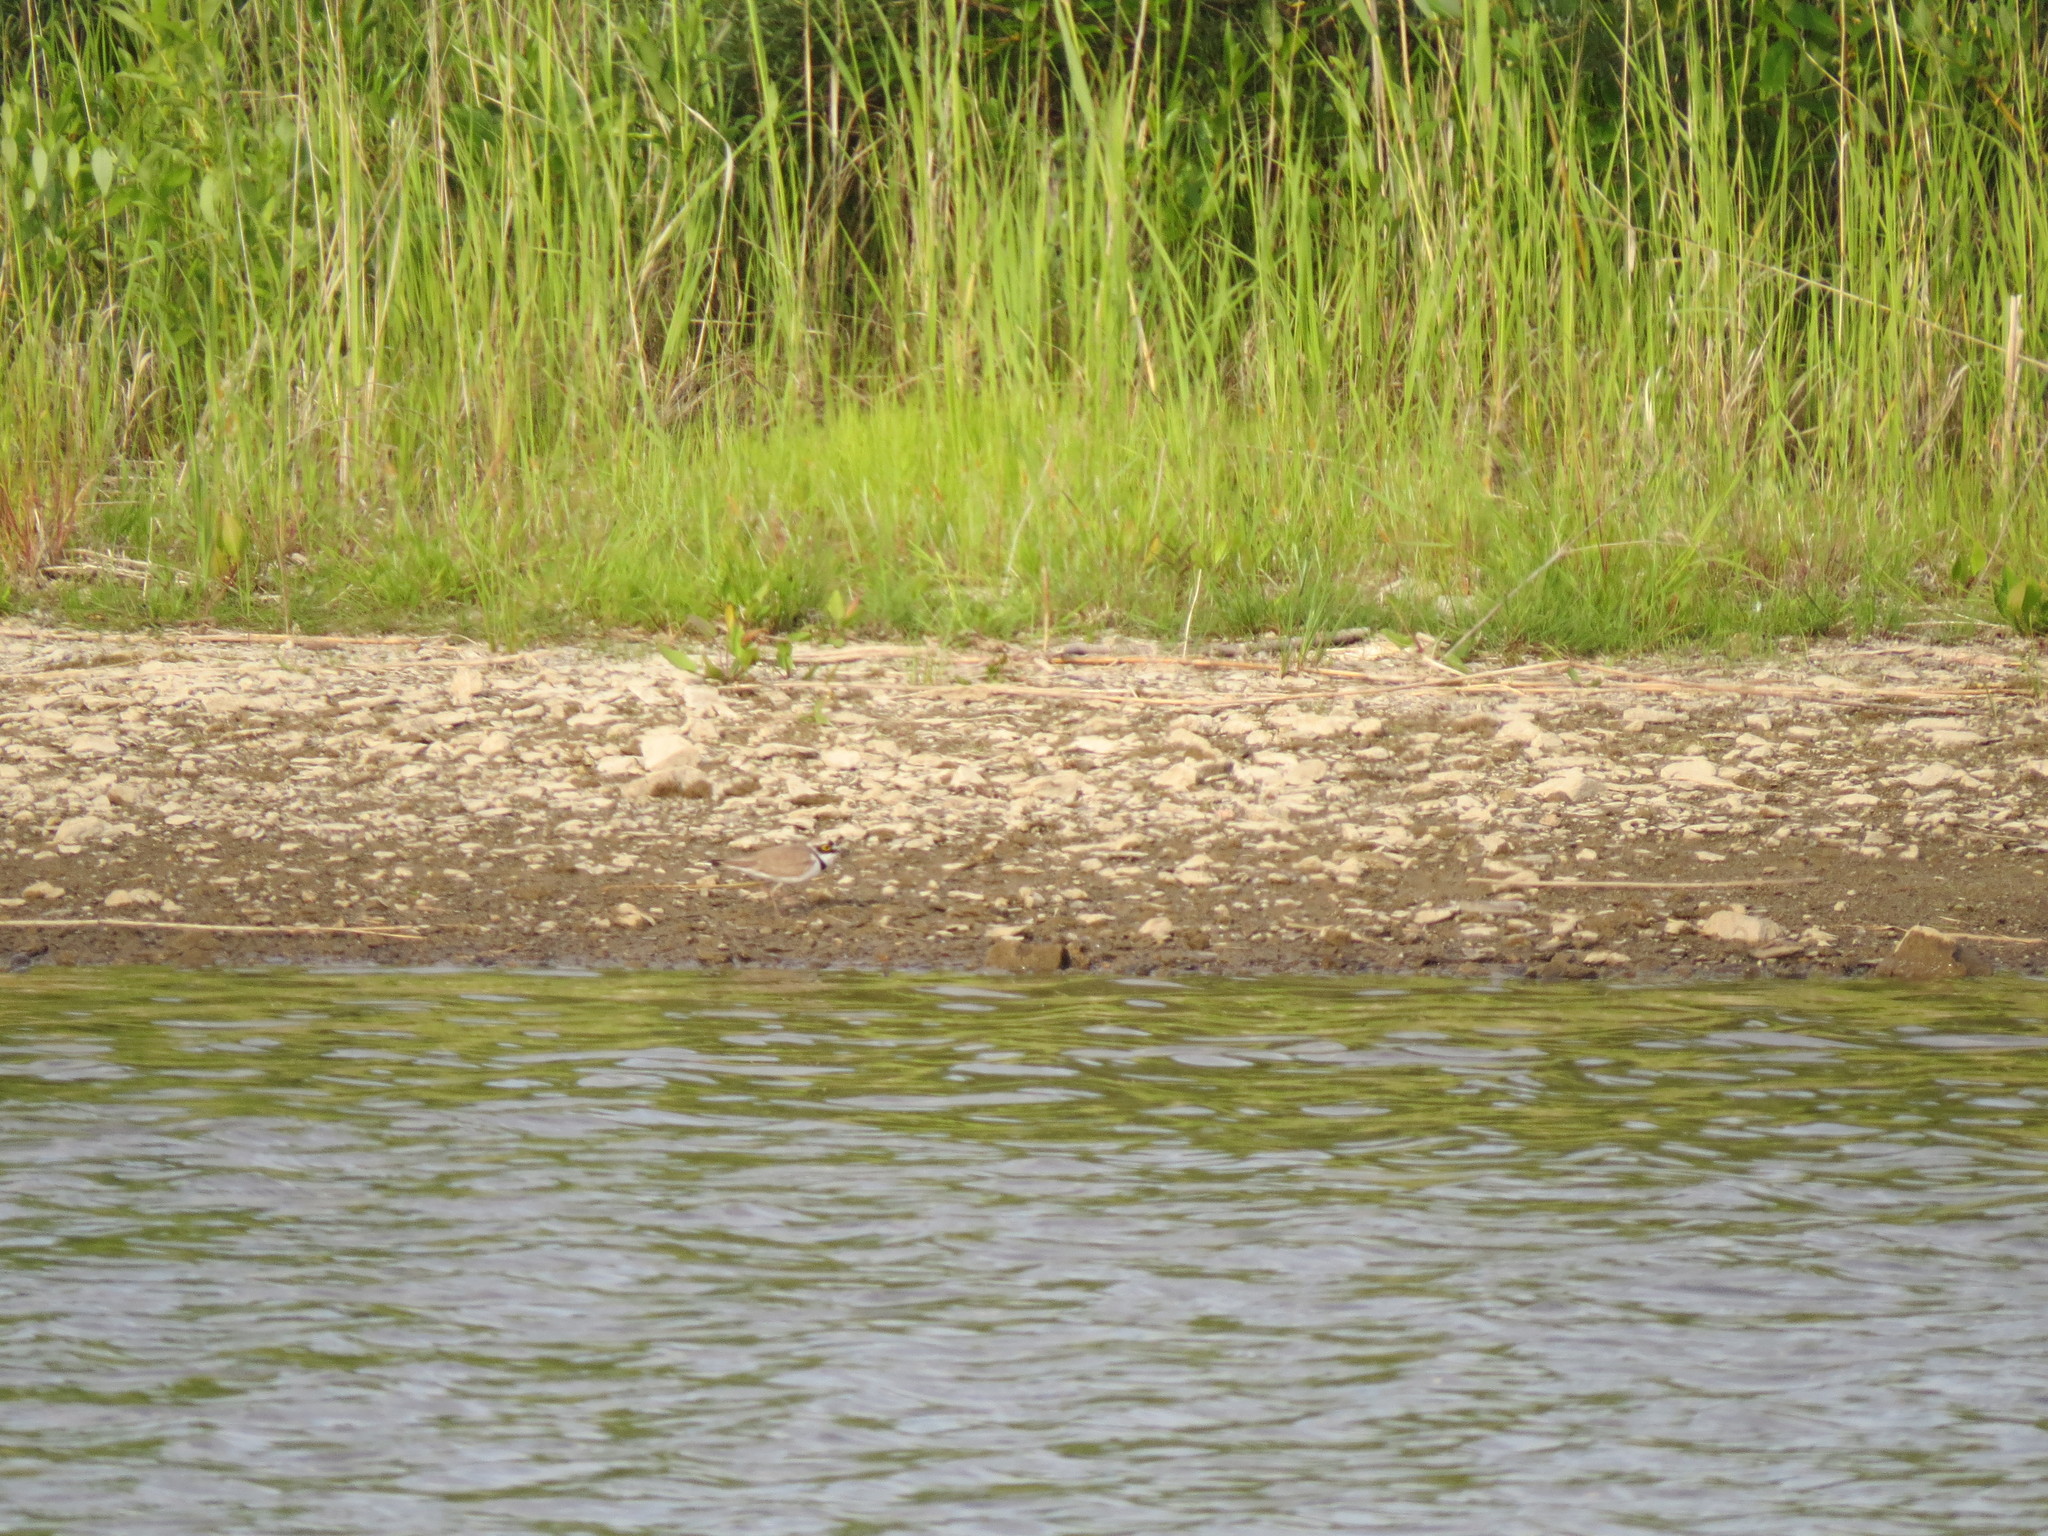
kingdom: Animalia
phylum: Chordata
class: Aves
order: Charadriiformes
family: Charadriidae
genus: Charadrius
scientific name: Charadrius dubius
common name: Little ringed plover
